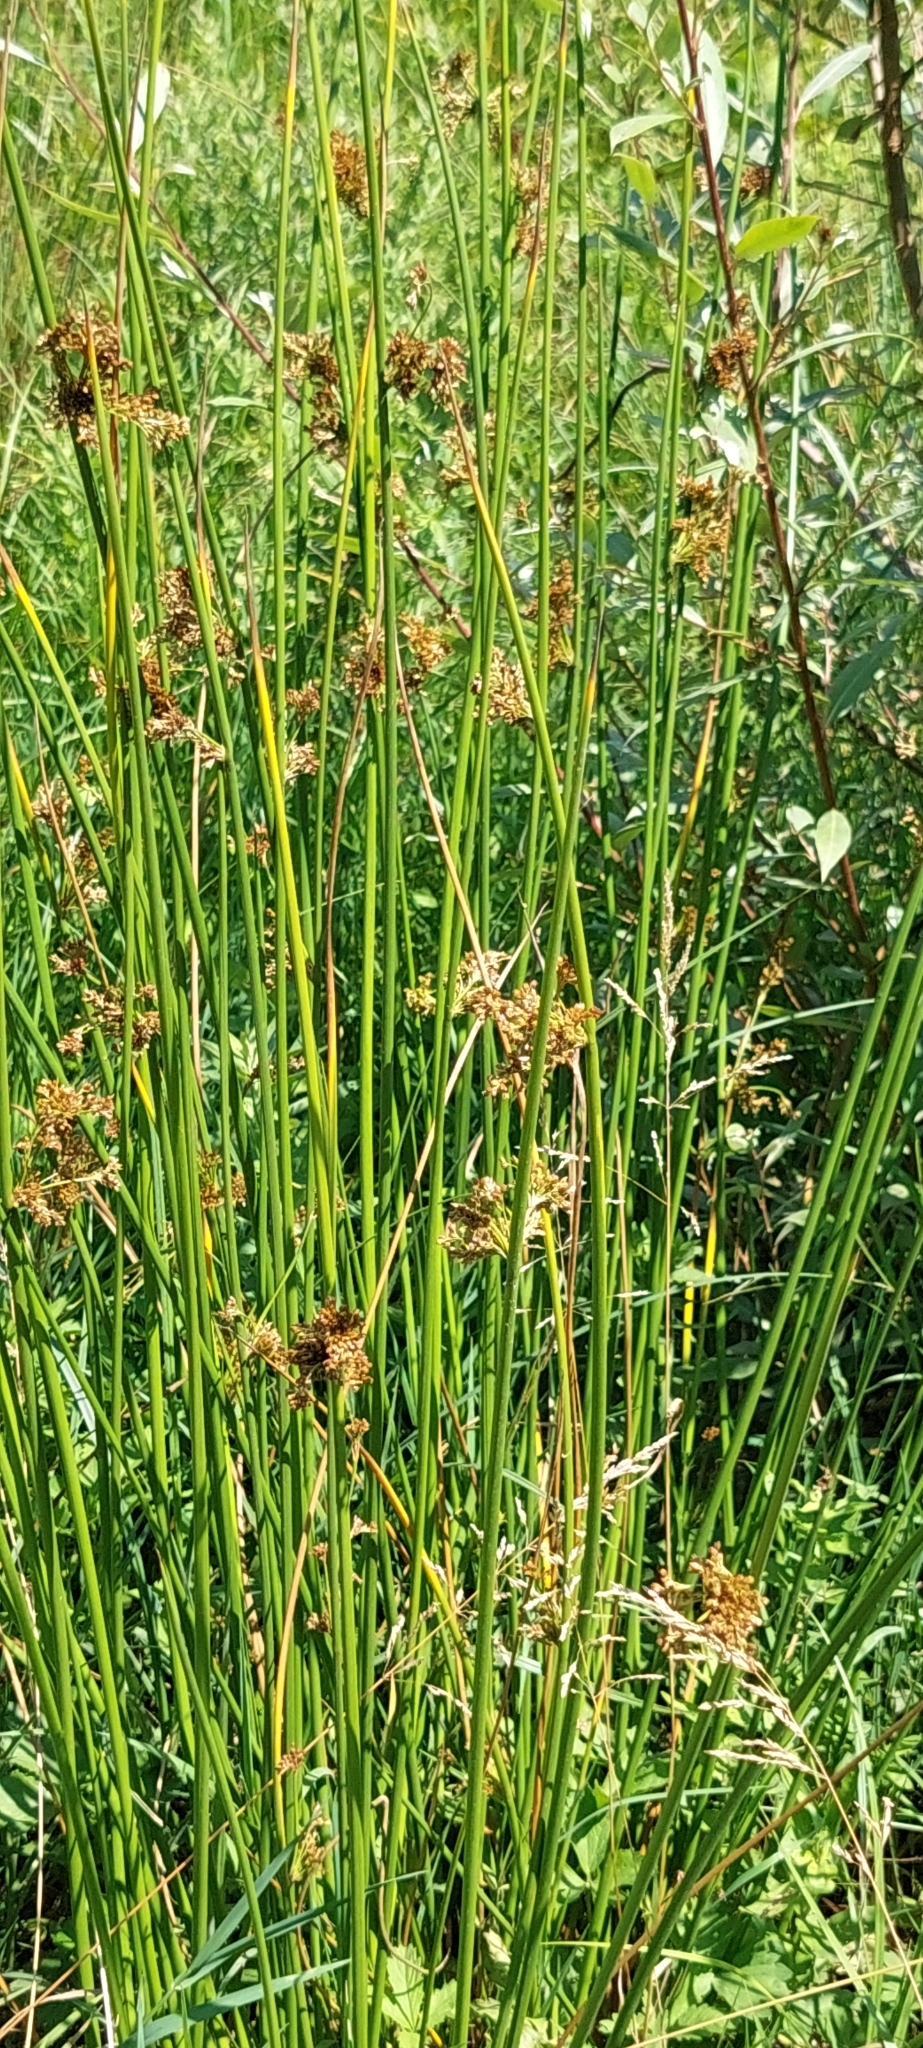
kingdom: Plantae
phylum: Tracheophyta
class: Liliopsida
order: Poales
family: Juncaceae
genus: Juncus
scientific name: Juncus effusus
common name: Soft rush
